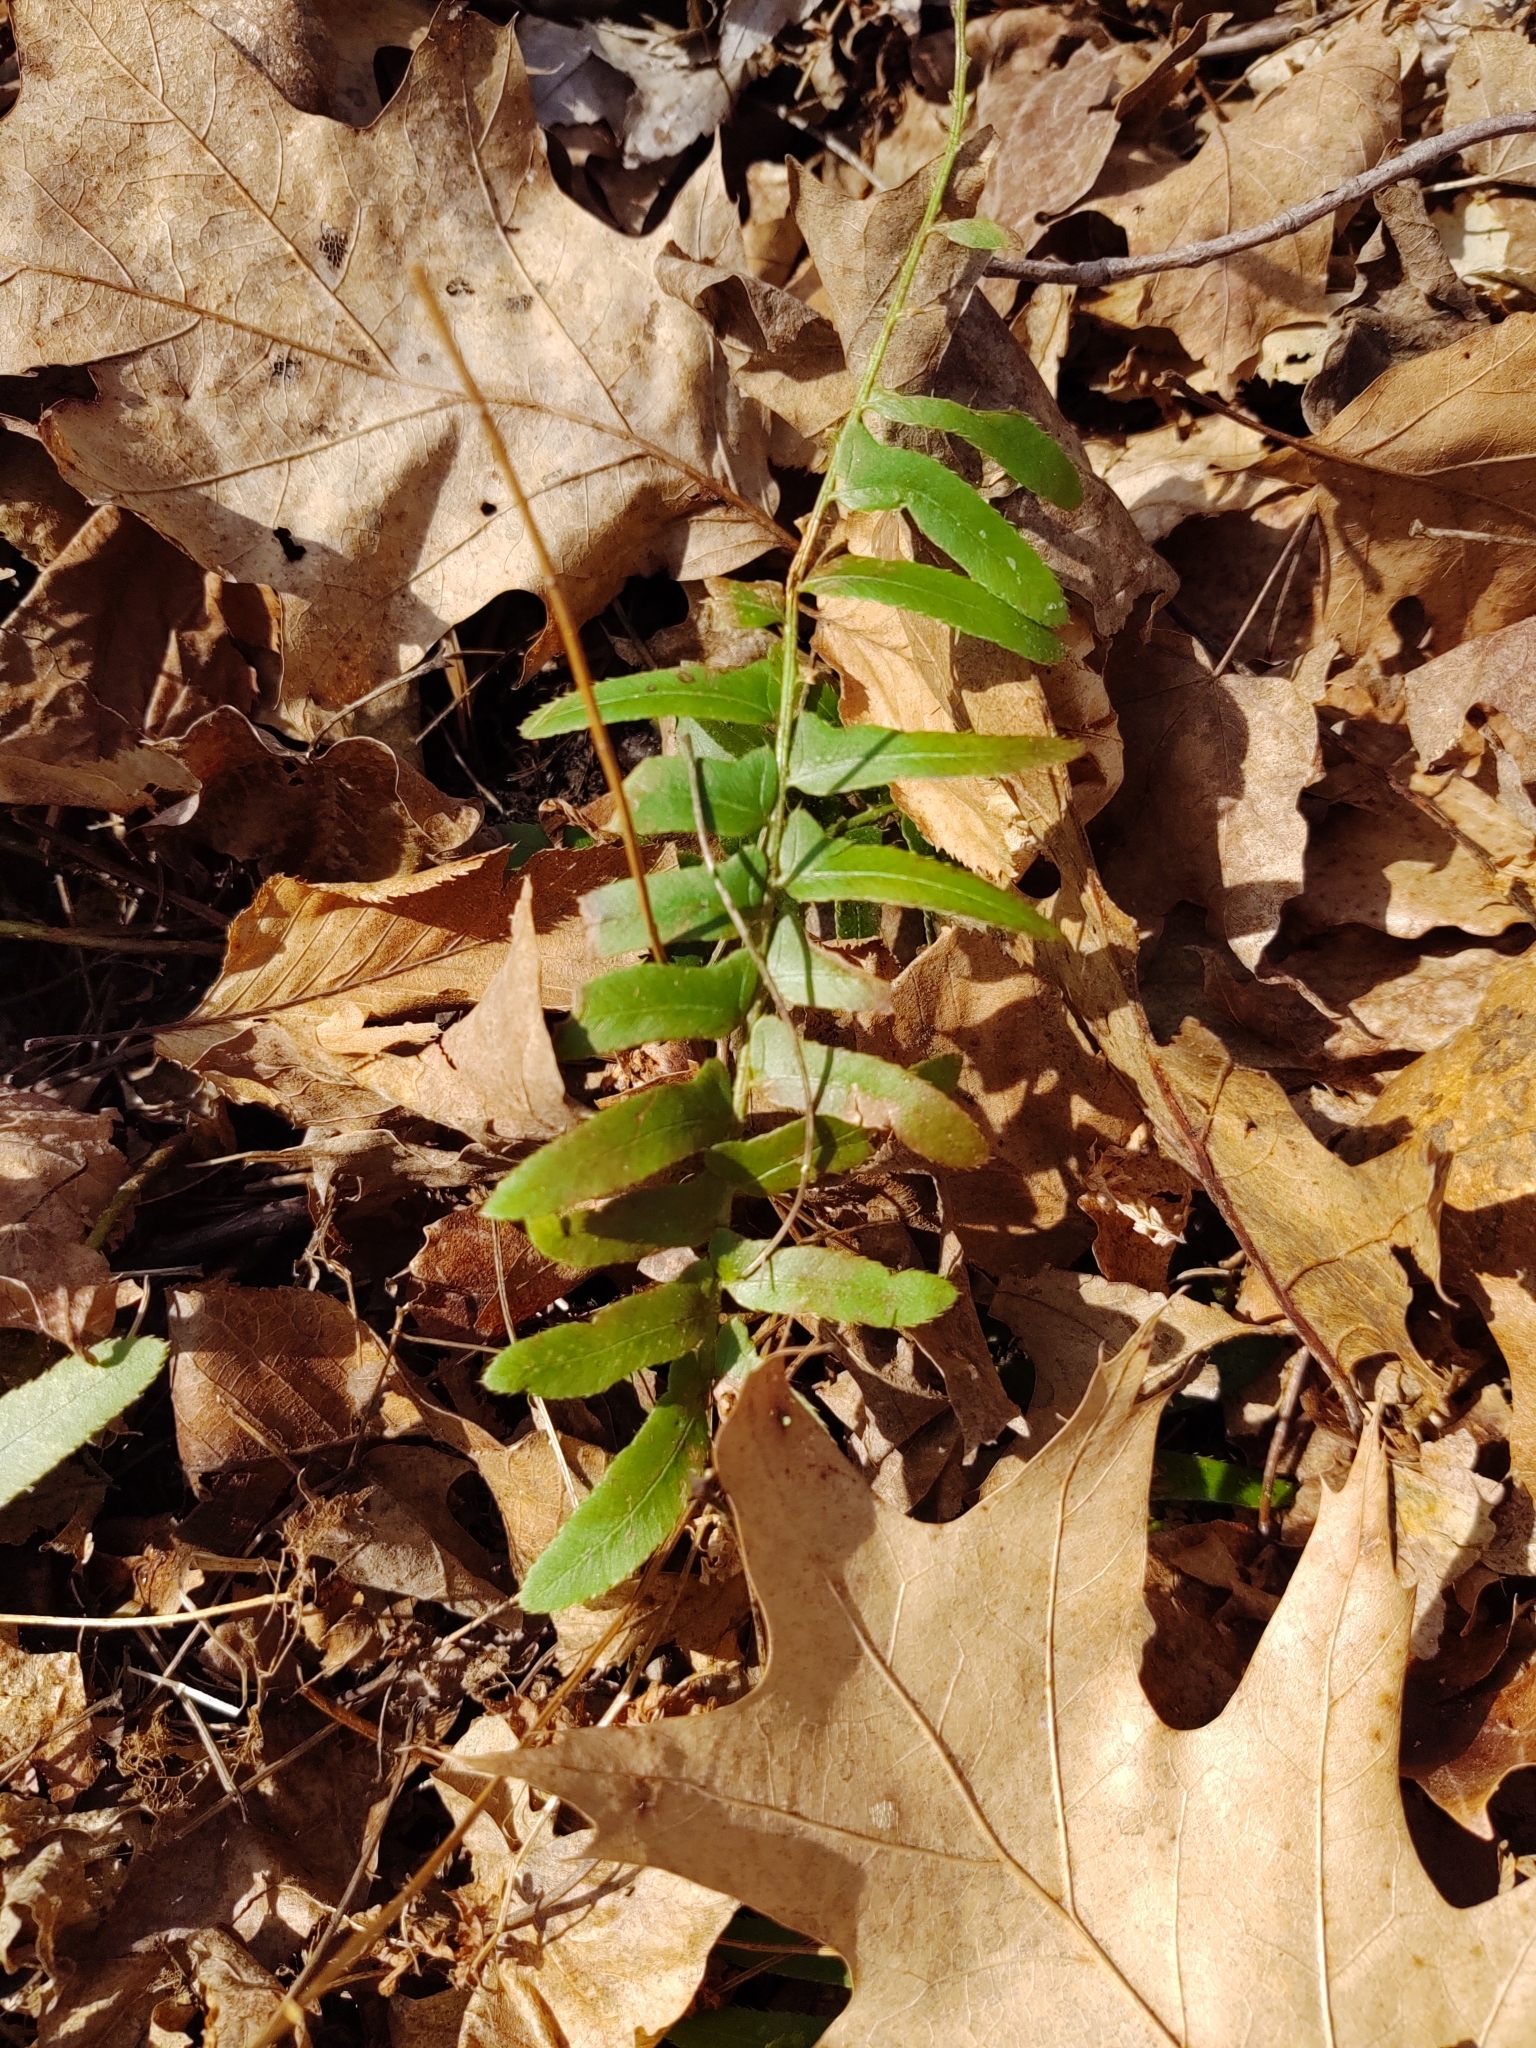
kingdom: Plantae
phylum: Tracheophyta
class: Polypodiopsida
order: Polypodiales
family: Dryopteridaceae
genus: Polystichum
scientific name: Polystichum acrostichoides
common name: Christmas fern
